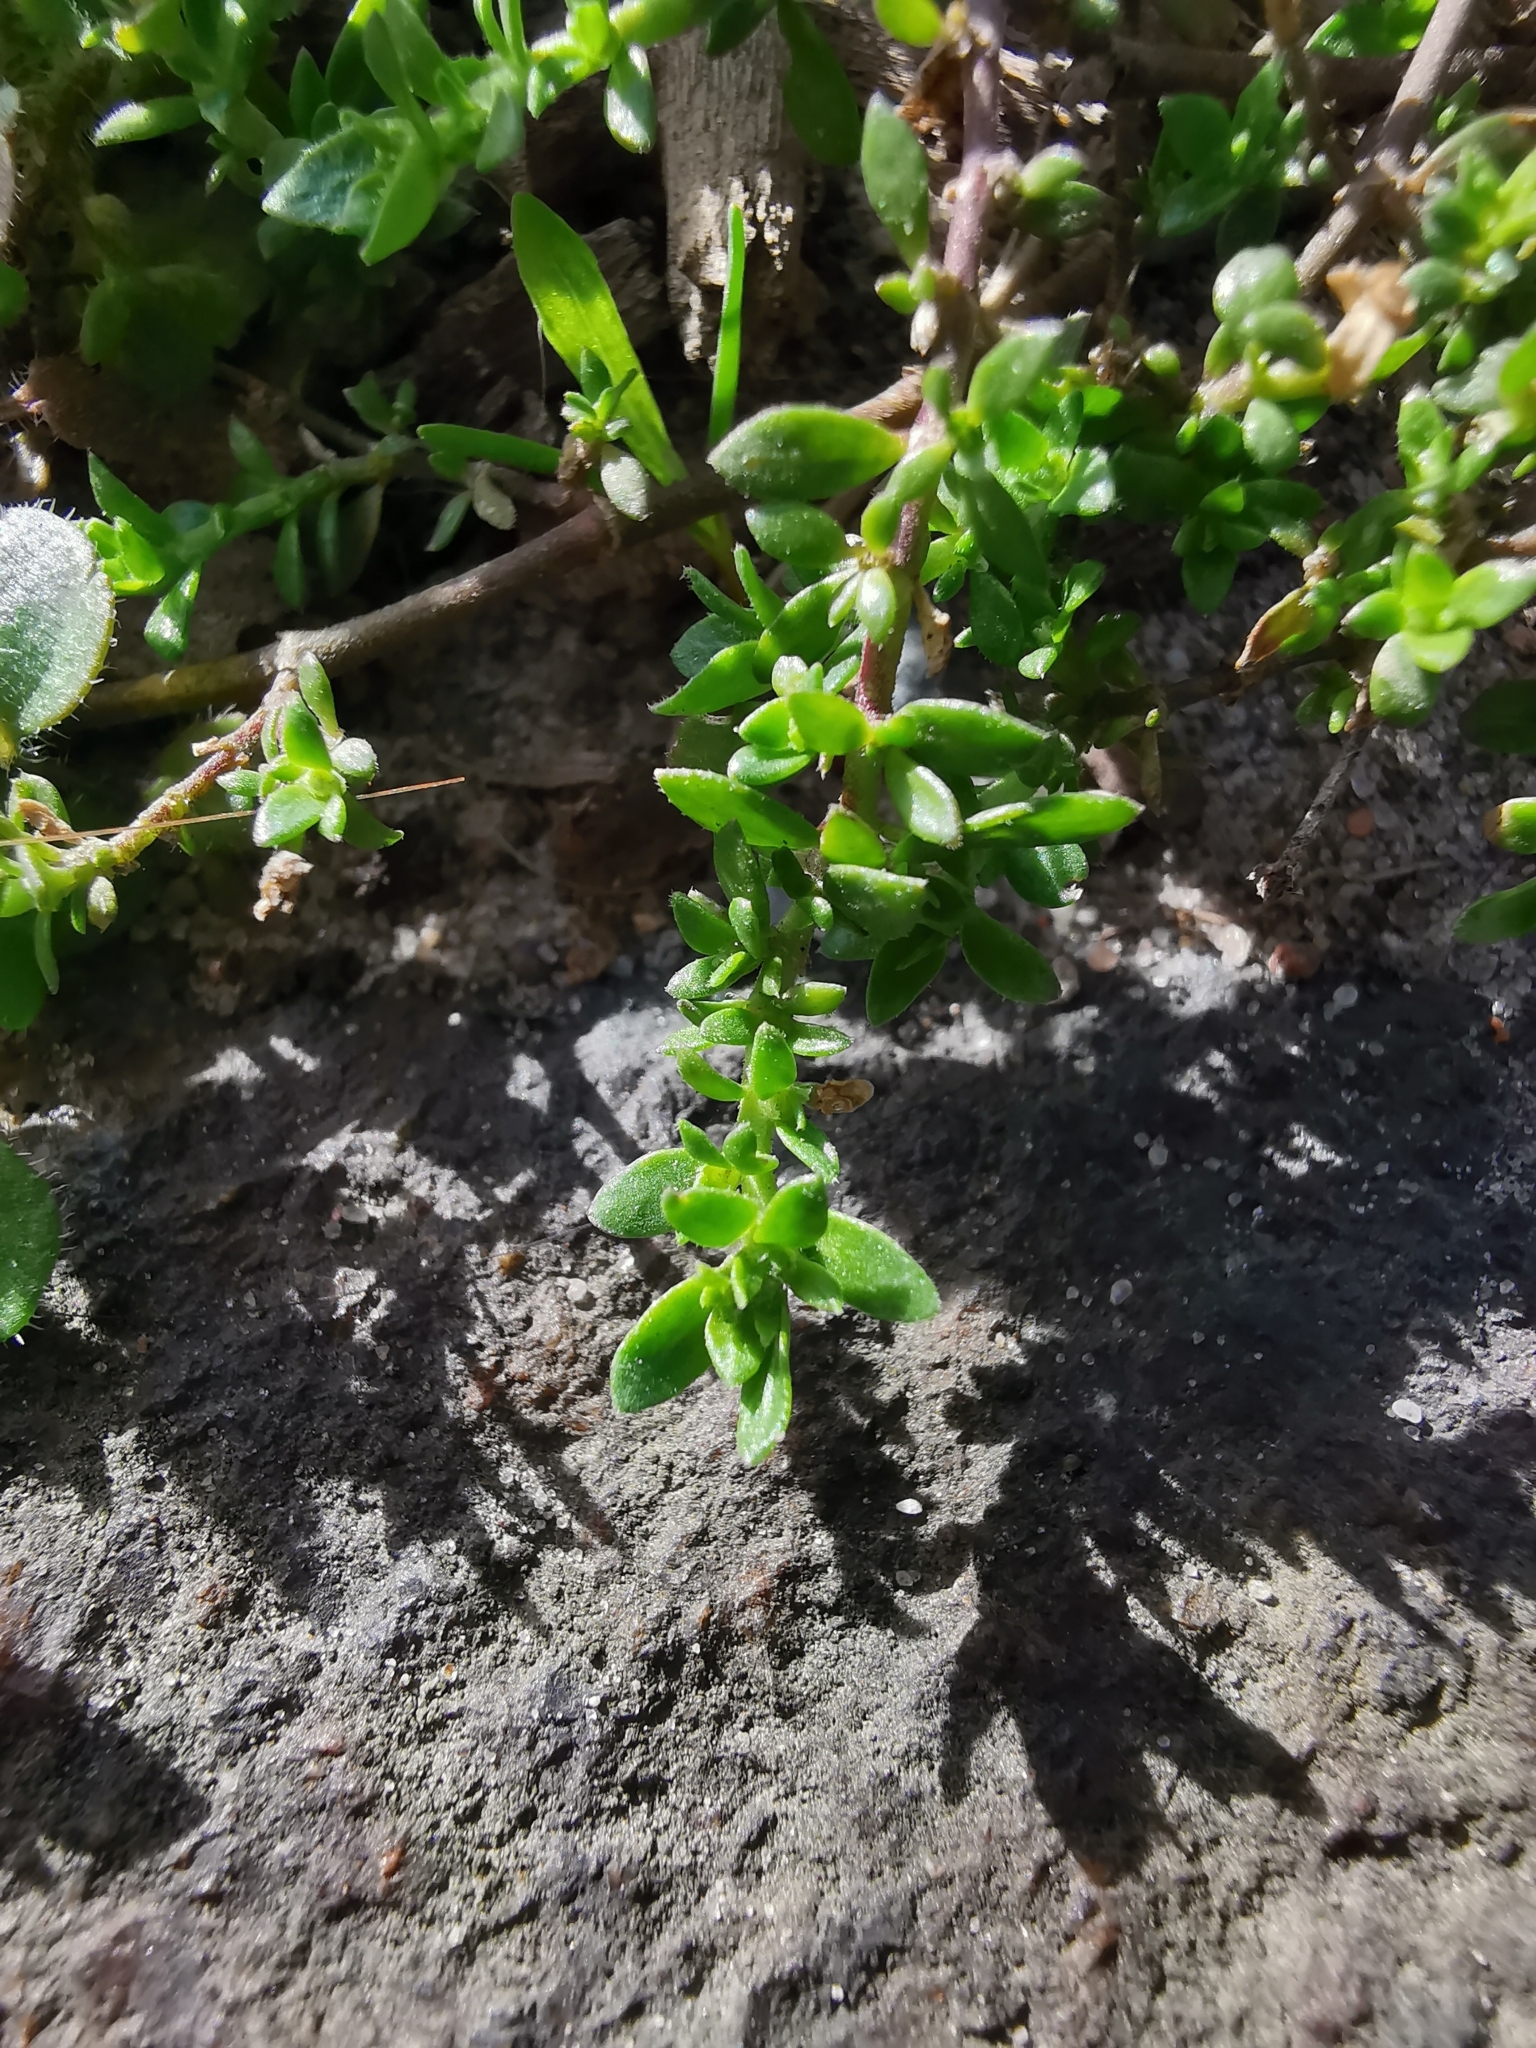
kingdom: Plantae
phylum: Tracheophyta
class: Magnoliopsida
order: Caryophyllales
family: Caryophyllaceae
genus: Herniaria
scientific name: Herniaria glabra
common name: Smooth rupturewort
